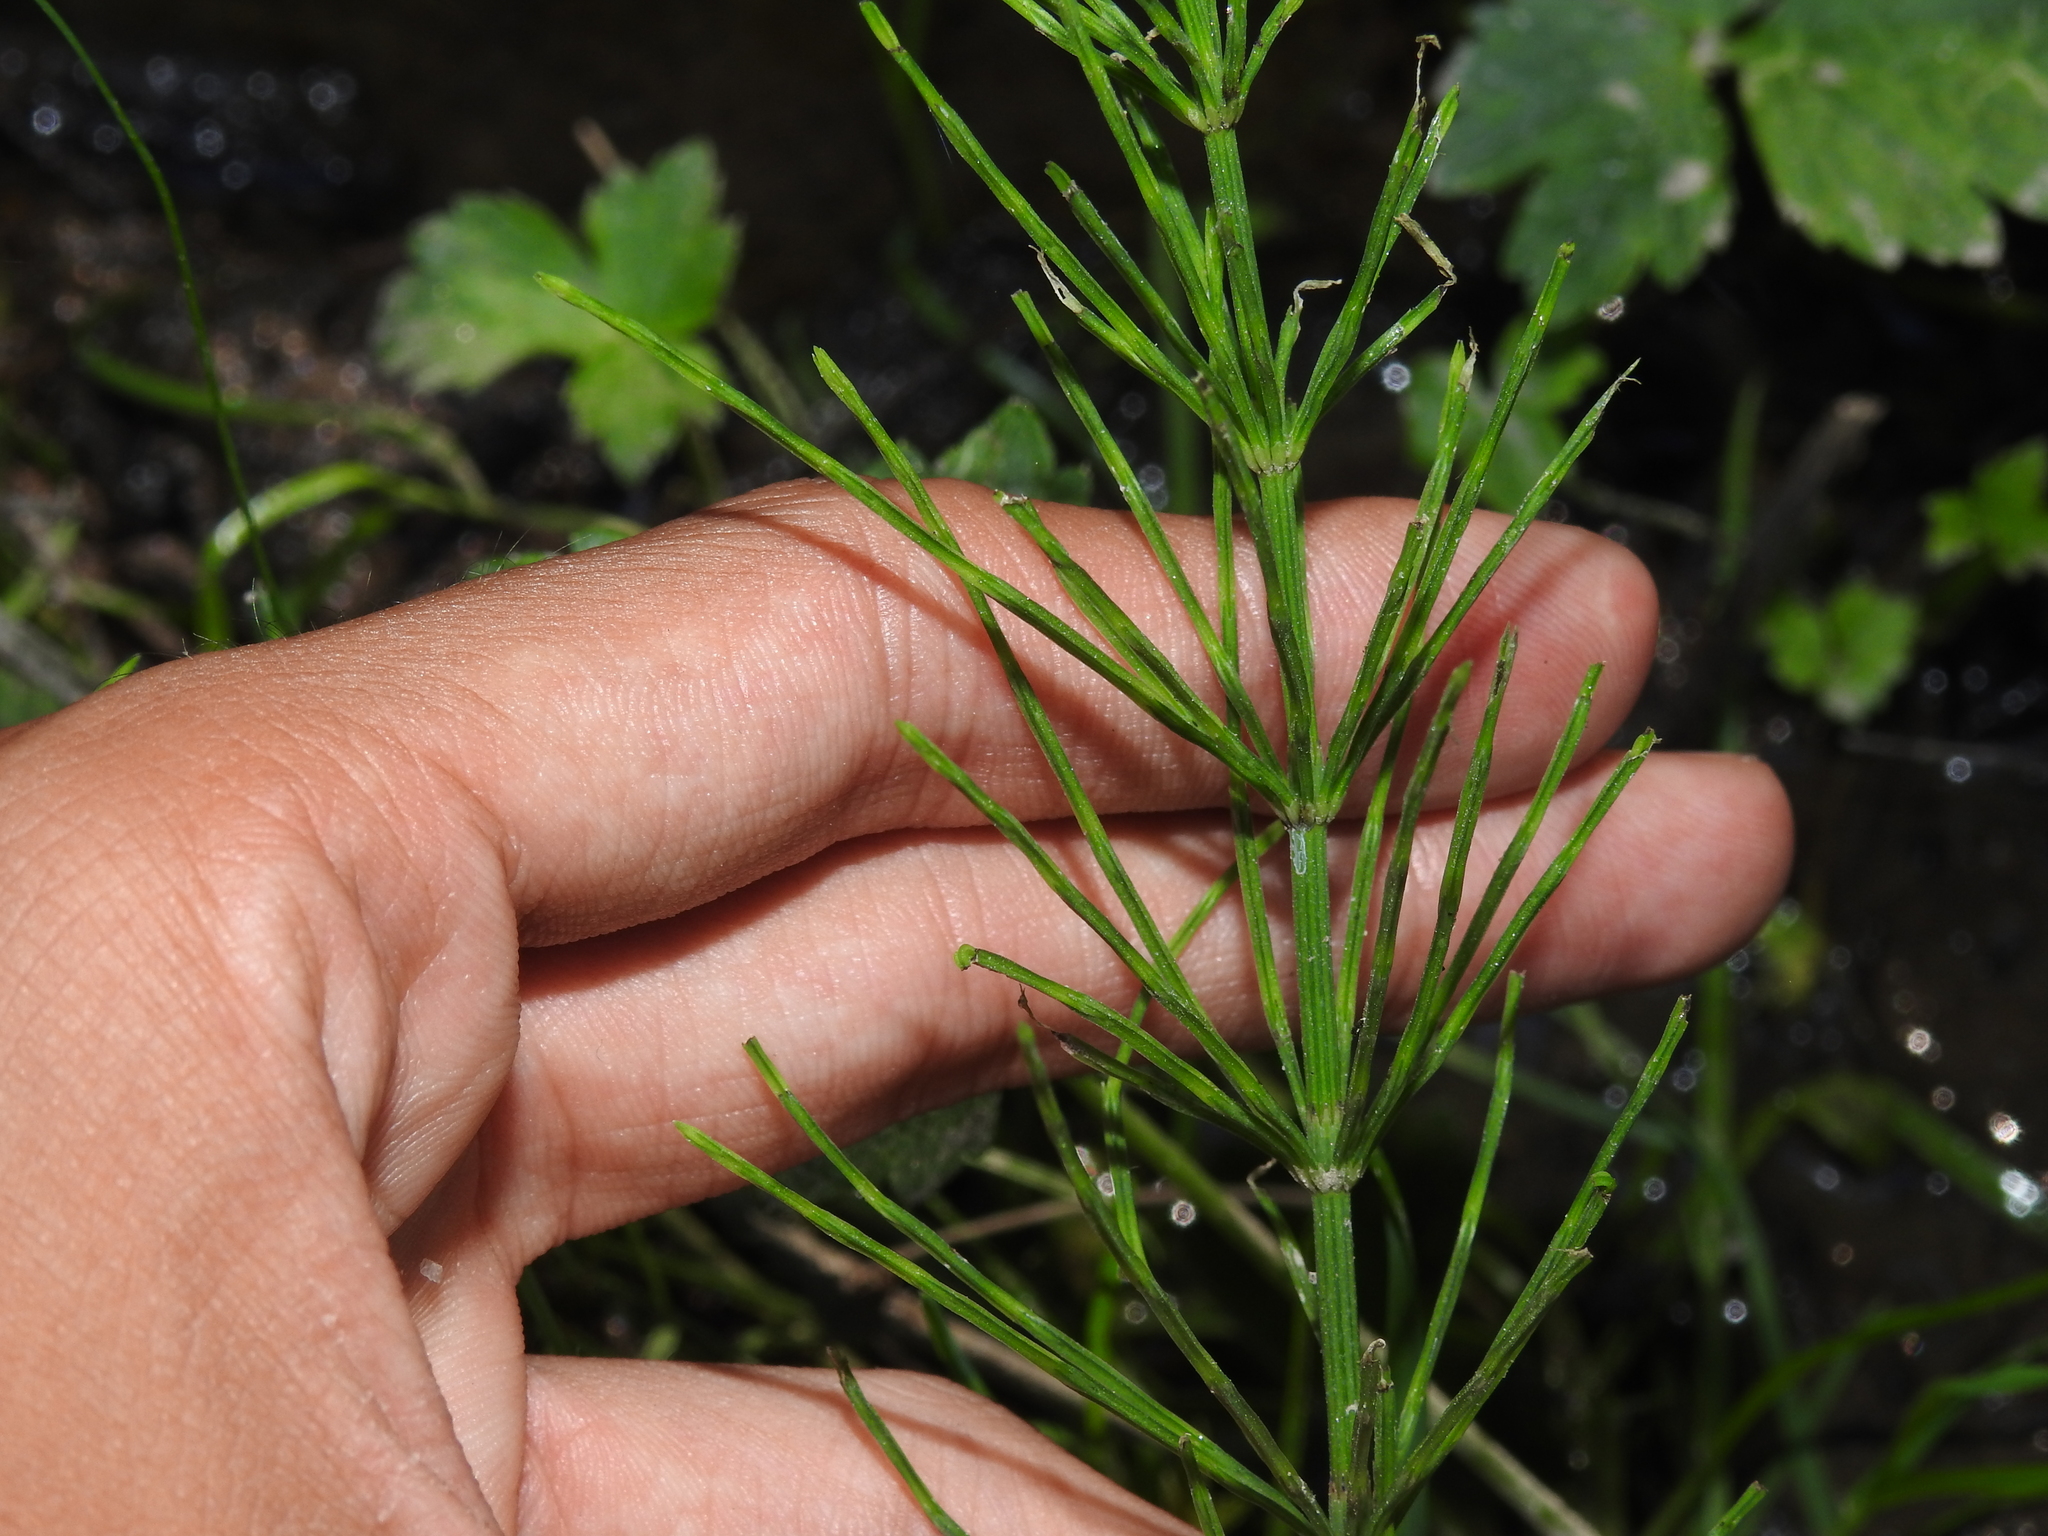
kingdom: Plantae
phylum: Tracheophyta
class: Polypodiopsida
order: Equisetales
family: Equisetaceae
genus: Equisetum
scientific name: Equisetum arvense
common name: Field horsetail
